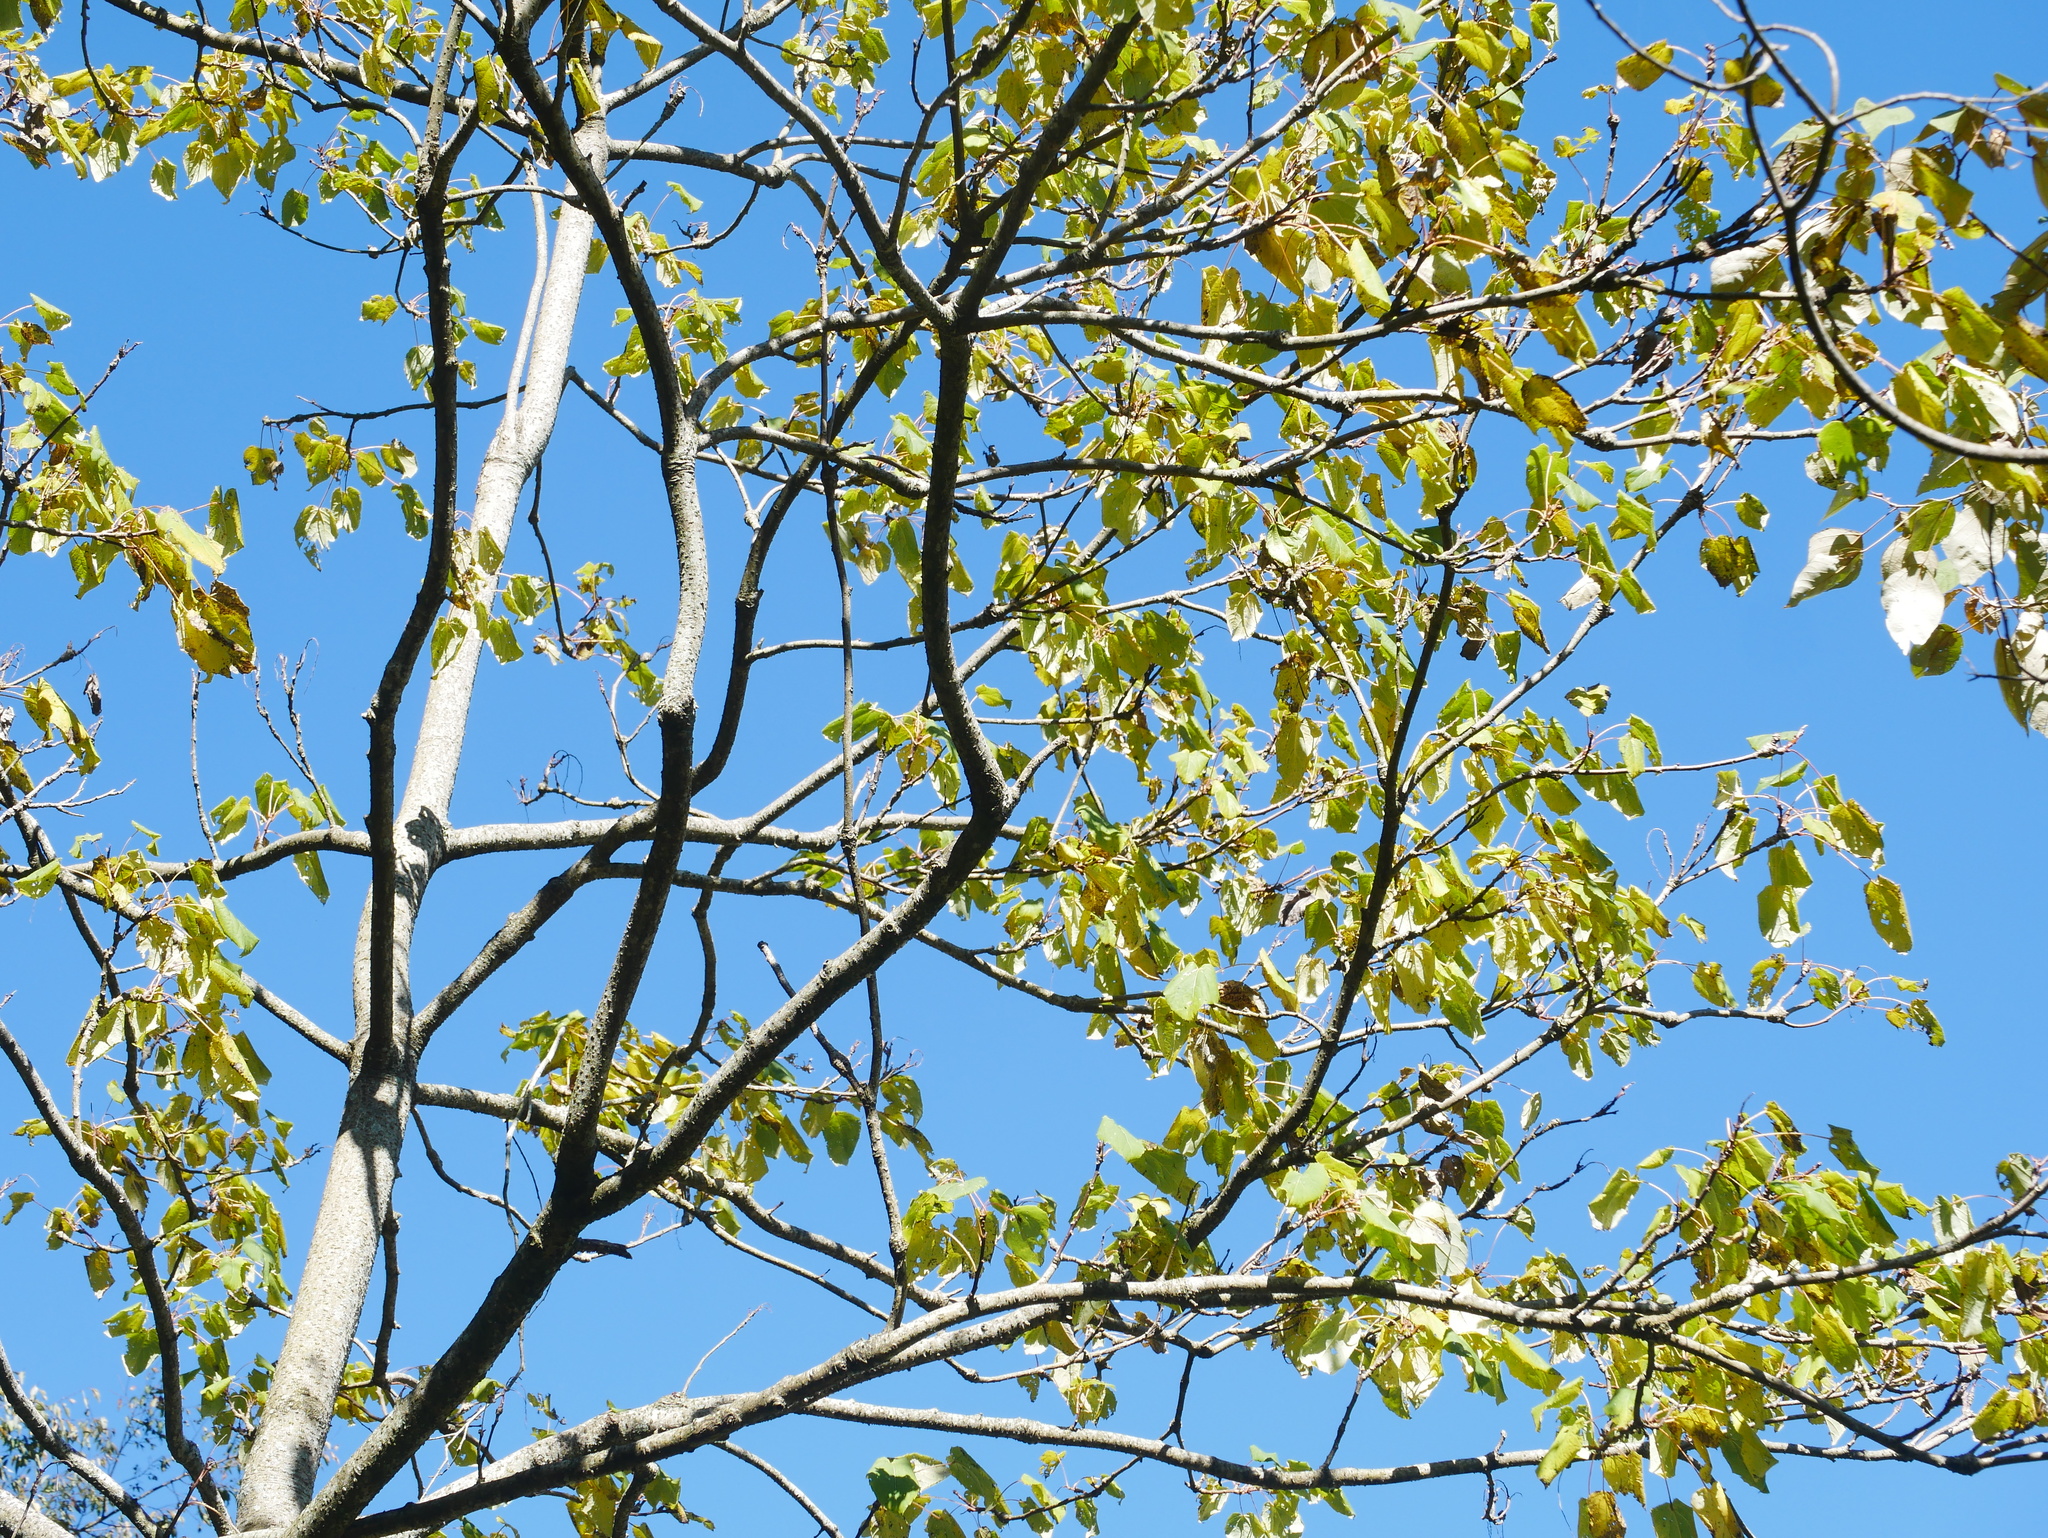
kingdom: Plantae
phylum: Tracheophyta
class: Magnoliopsida
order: Malpighiales
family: Salicaceae
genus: Idesia
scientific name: Idesia polycarpa
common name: Idesia tree
